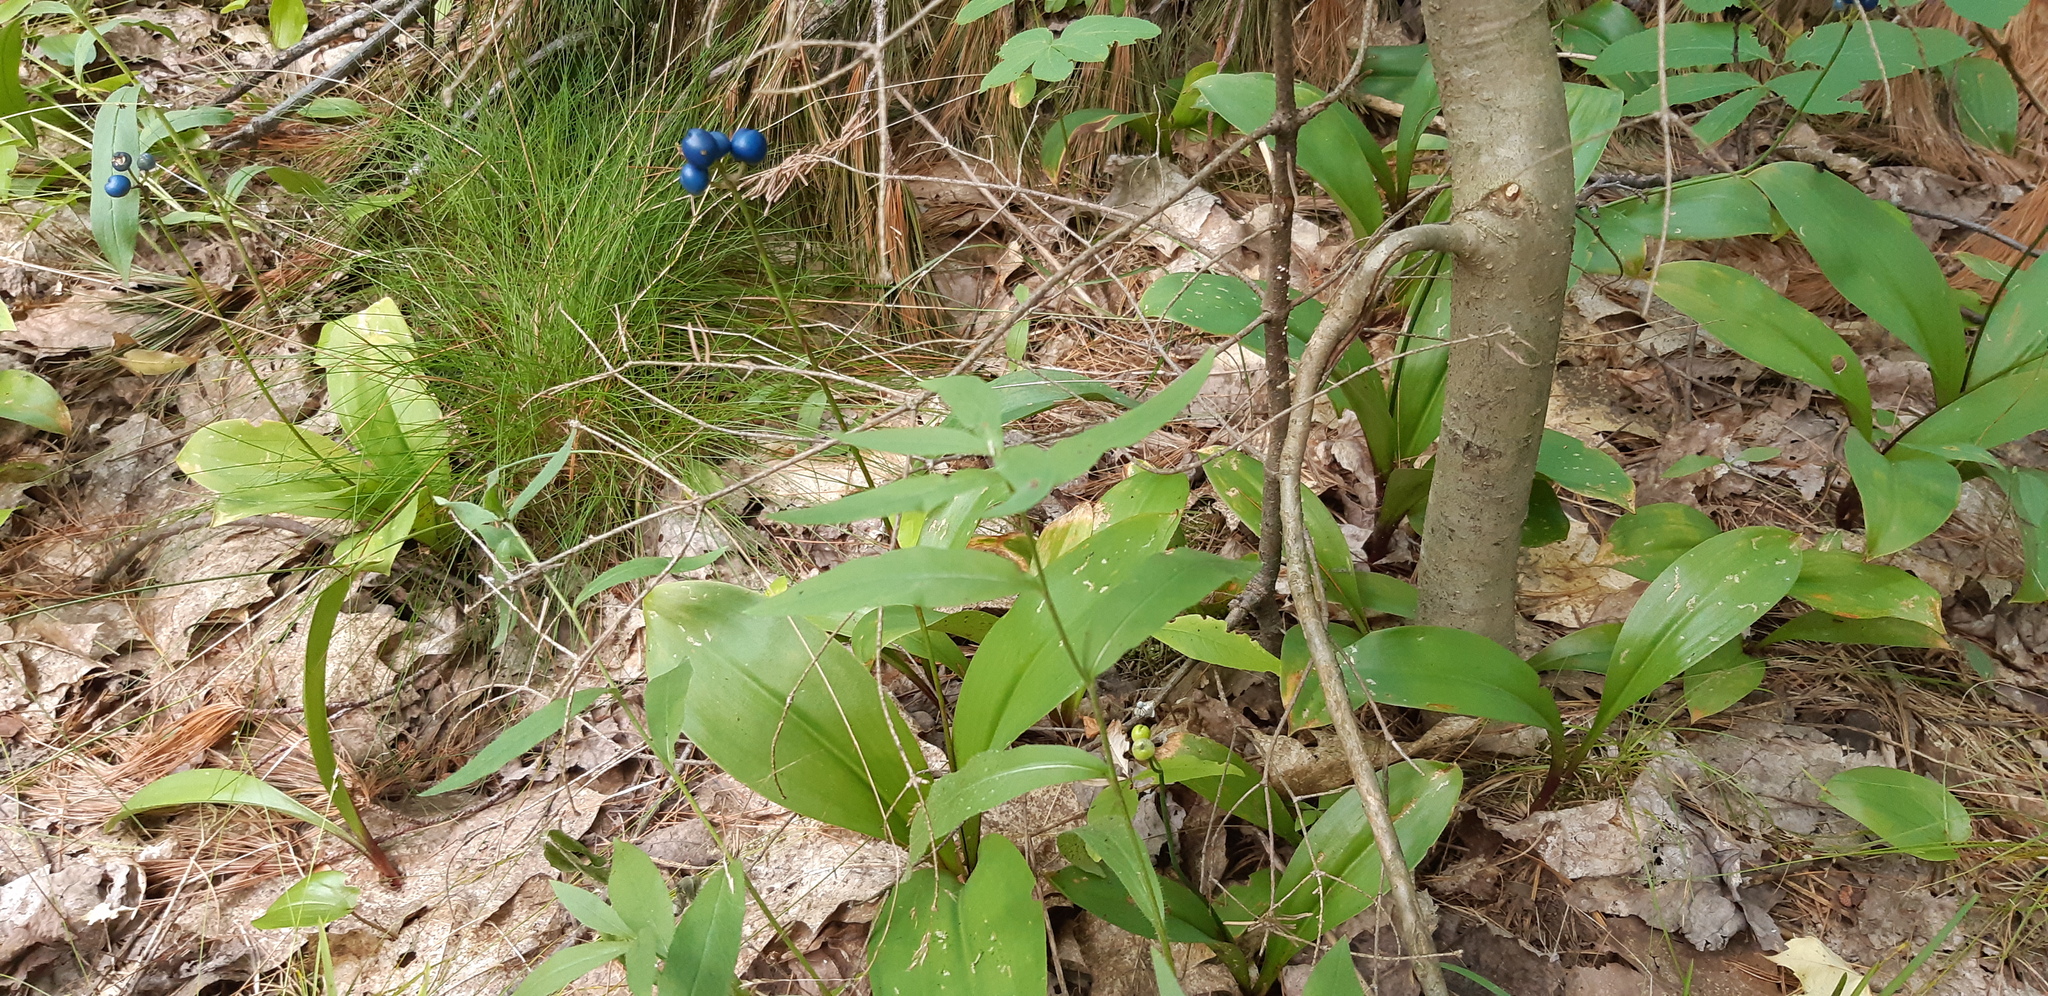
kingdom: Plantae
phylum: Tracheophyta
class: Liliopsida
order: Liliales
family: Liliaceae
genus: Clintonia
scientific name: Clintonia borealis
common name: Yellow clintonia
